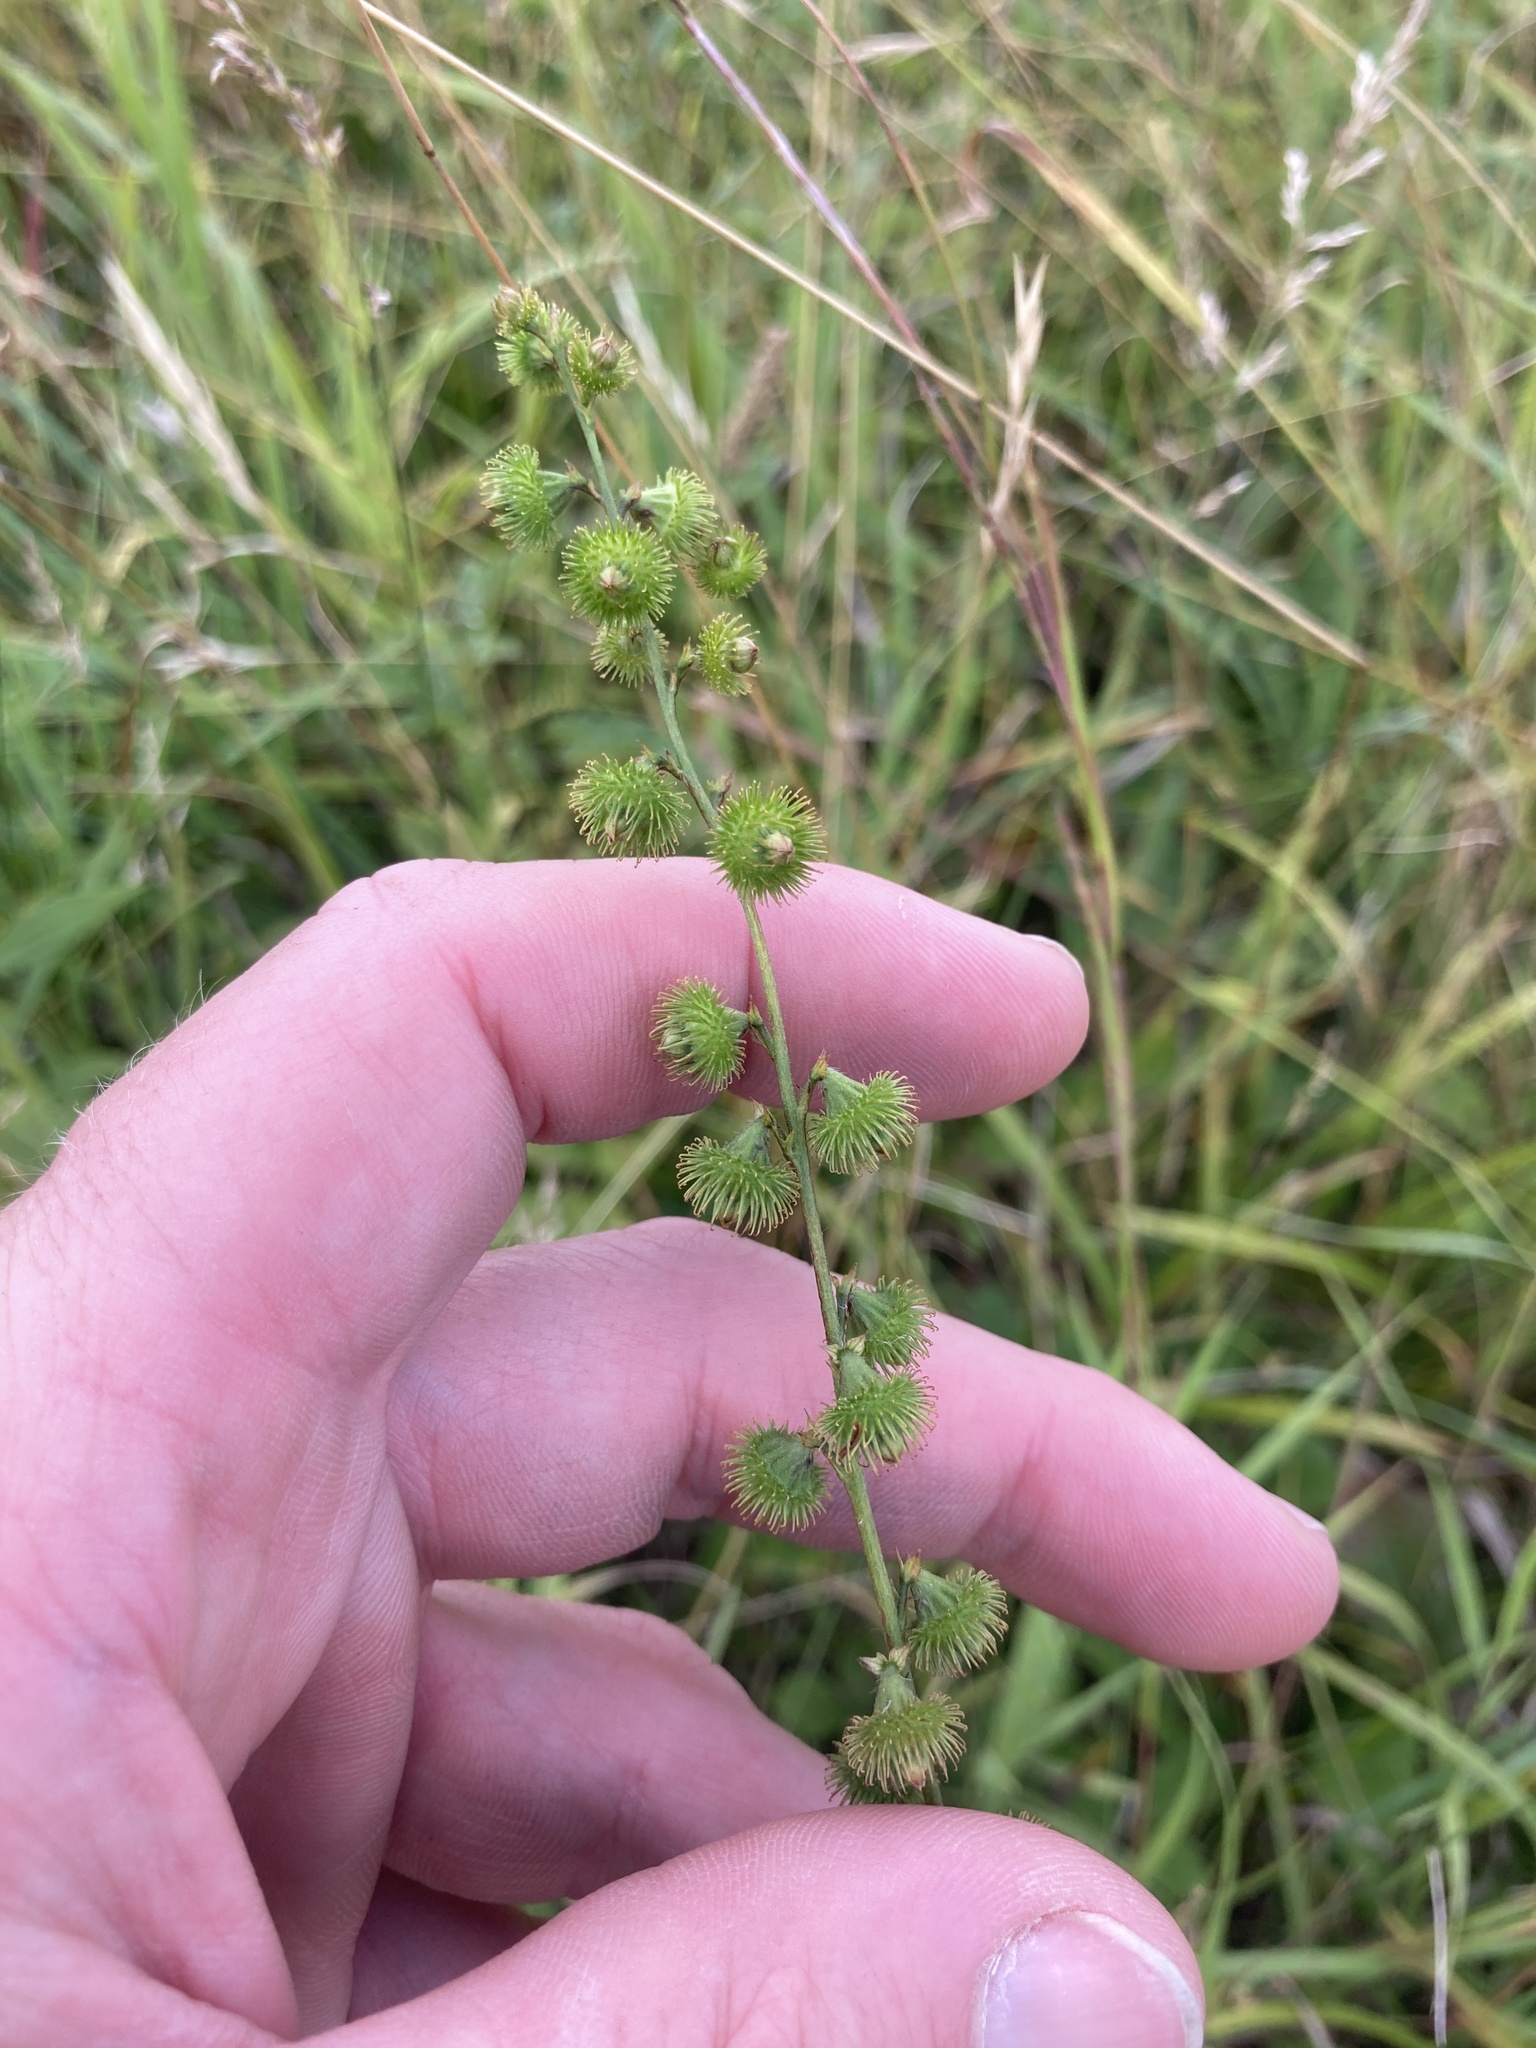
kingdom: Plantae
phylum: Tracheophyta
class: Magnoliopsida
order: Rosales
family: Rosaceae
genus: Agrimonia
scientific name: Agrimonia gryposepala
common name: Common agrimony
